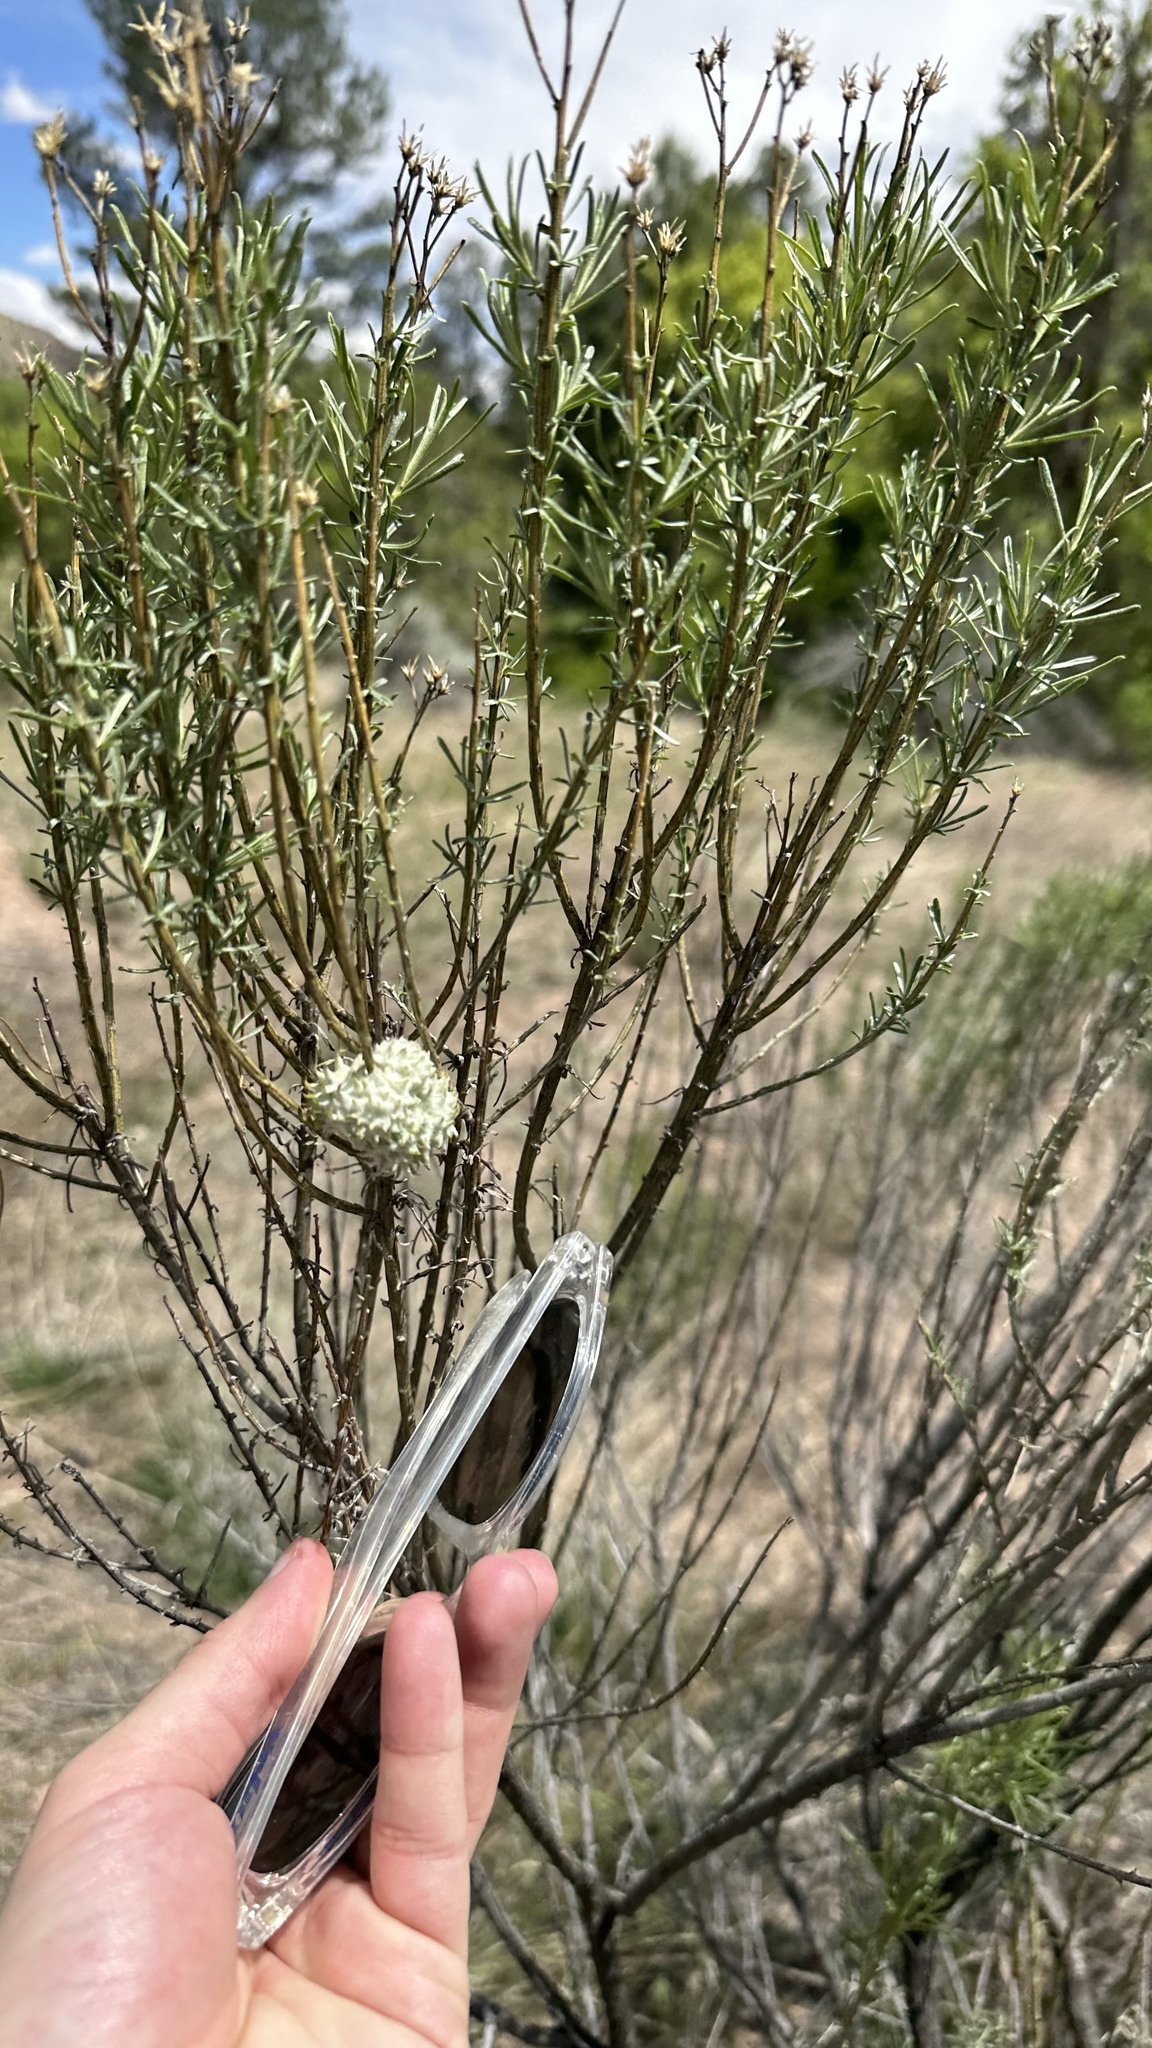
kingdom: Animalia
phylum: Arthropoda
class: Insecta
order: Diptera
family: Cecidomyiidae
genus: Rhopalomyia
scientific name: Rhopalomyia utahensis
